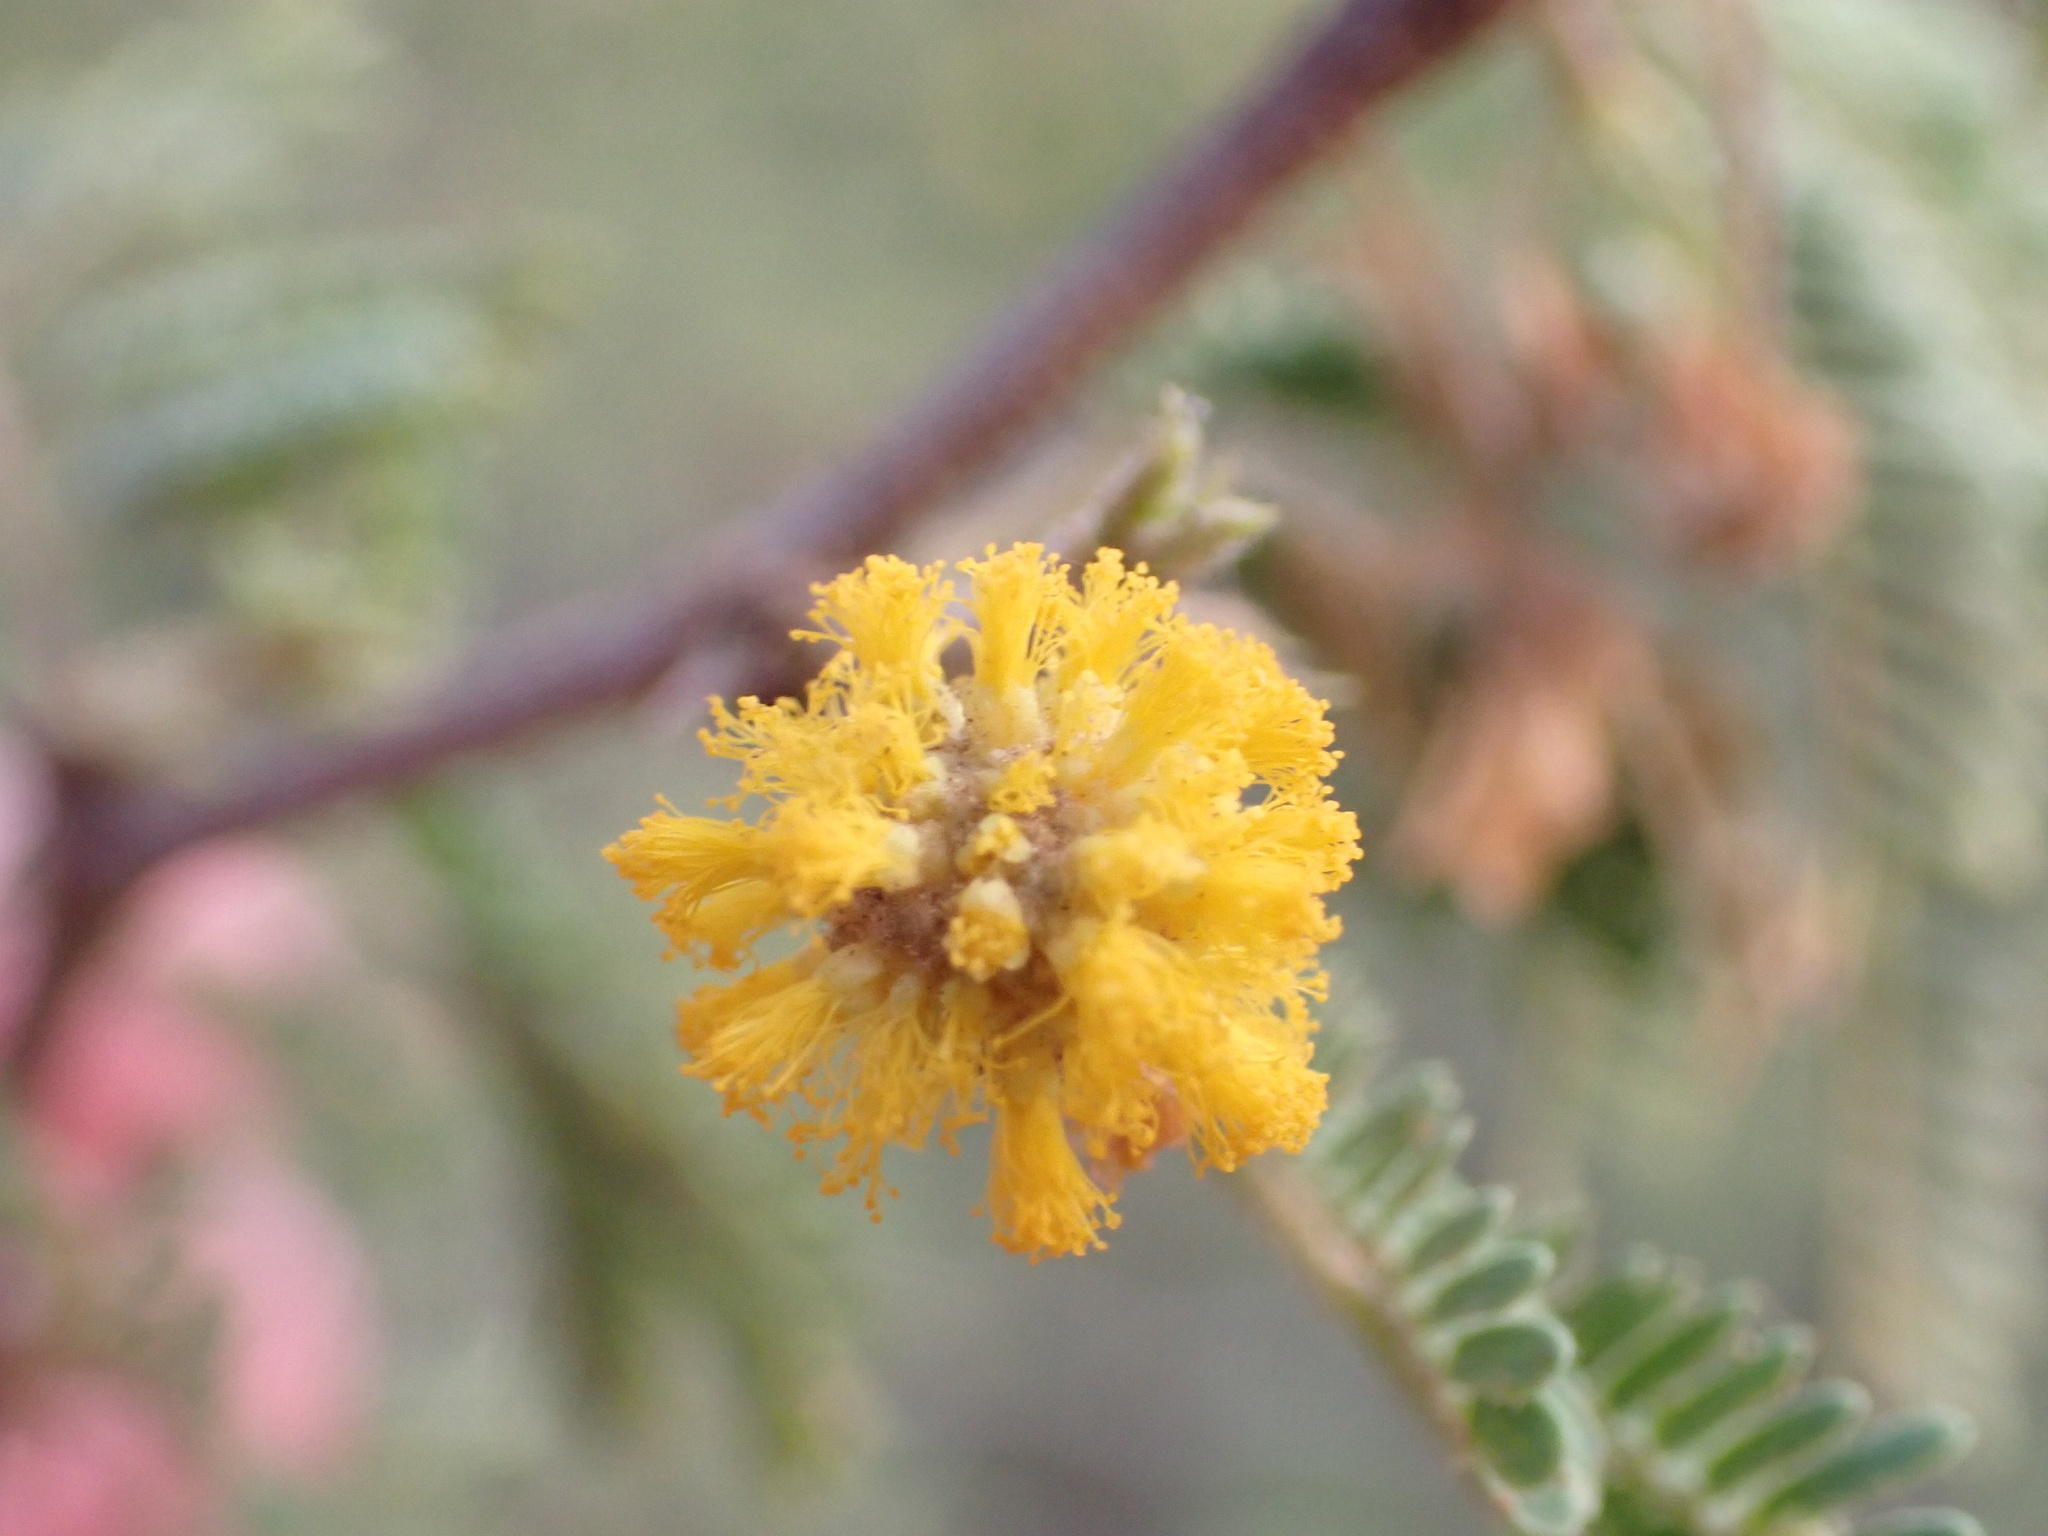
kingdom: Plantae
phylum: Tracheophyta
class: Magnoliopsida
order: Fabales
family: Fabaceae
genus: Vachellia
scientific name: Vachellia tortuosa
